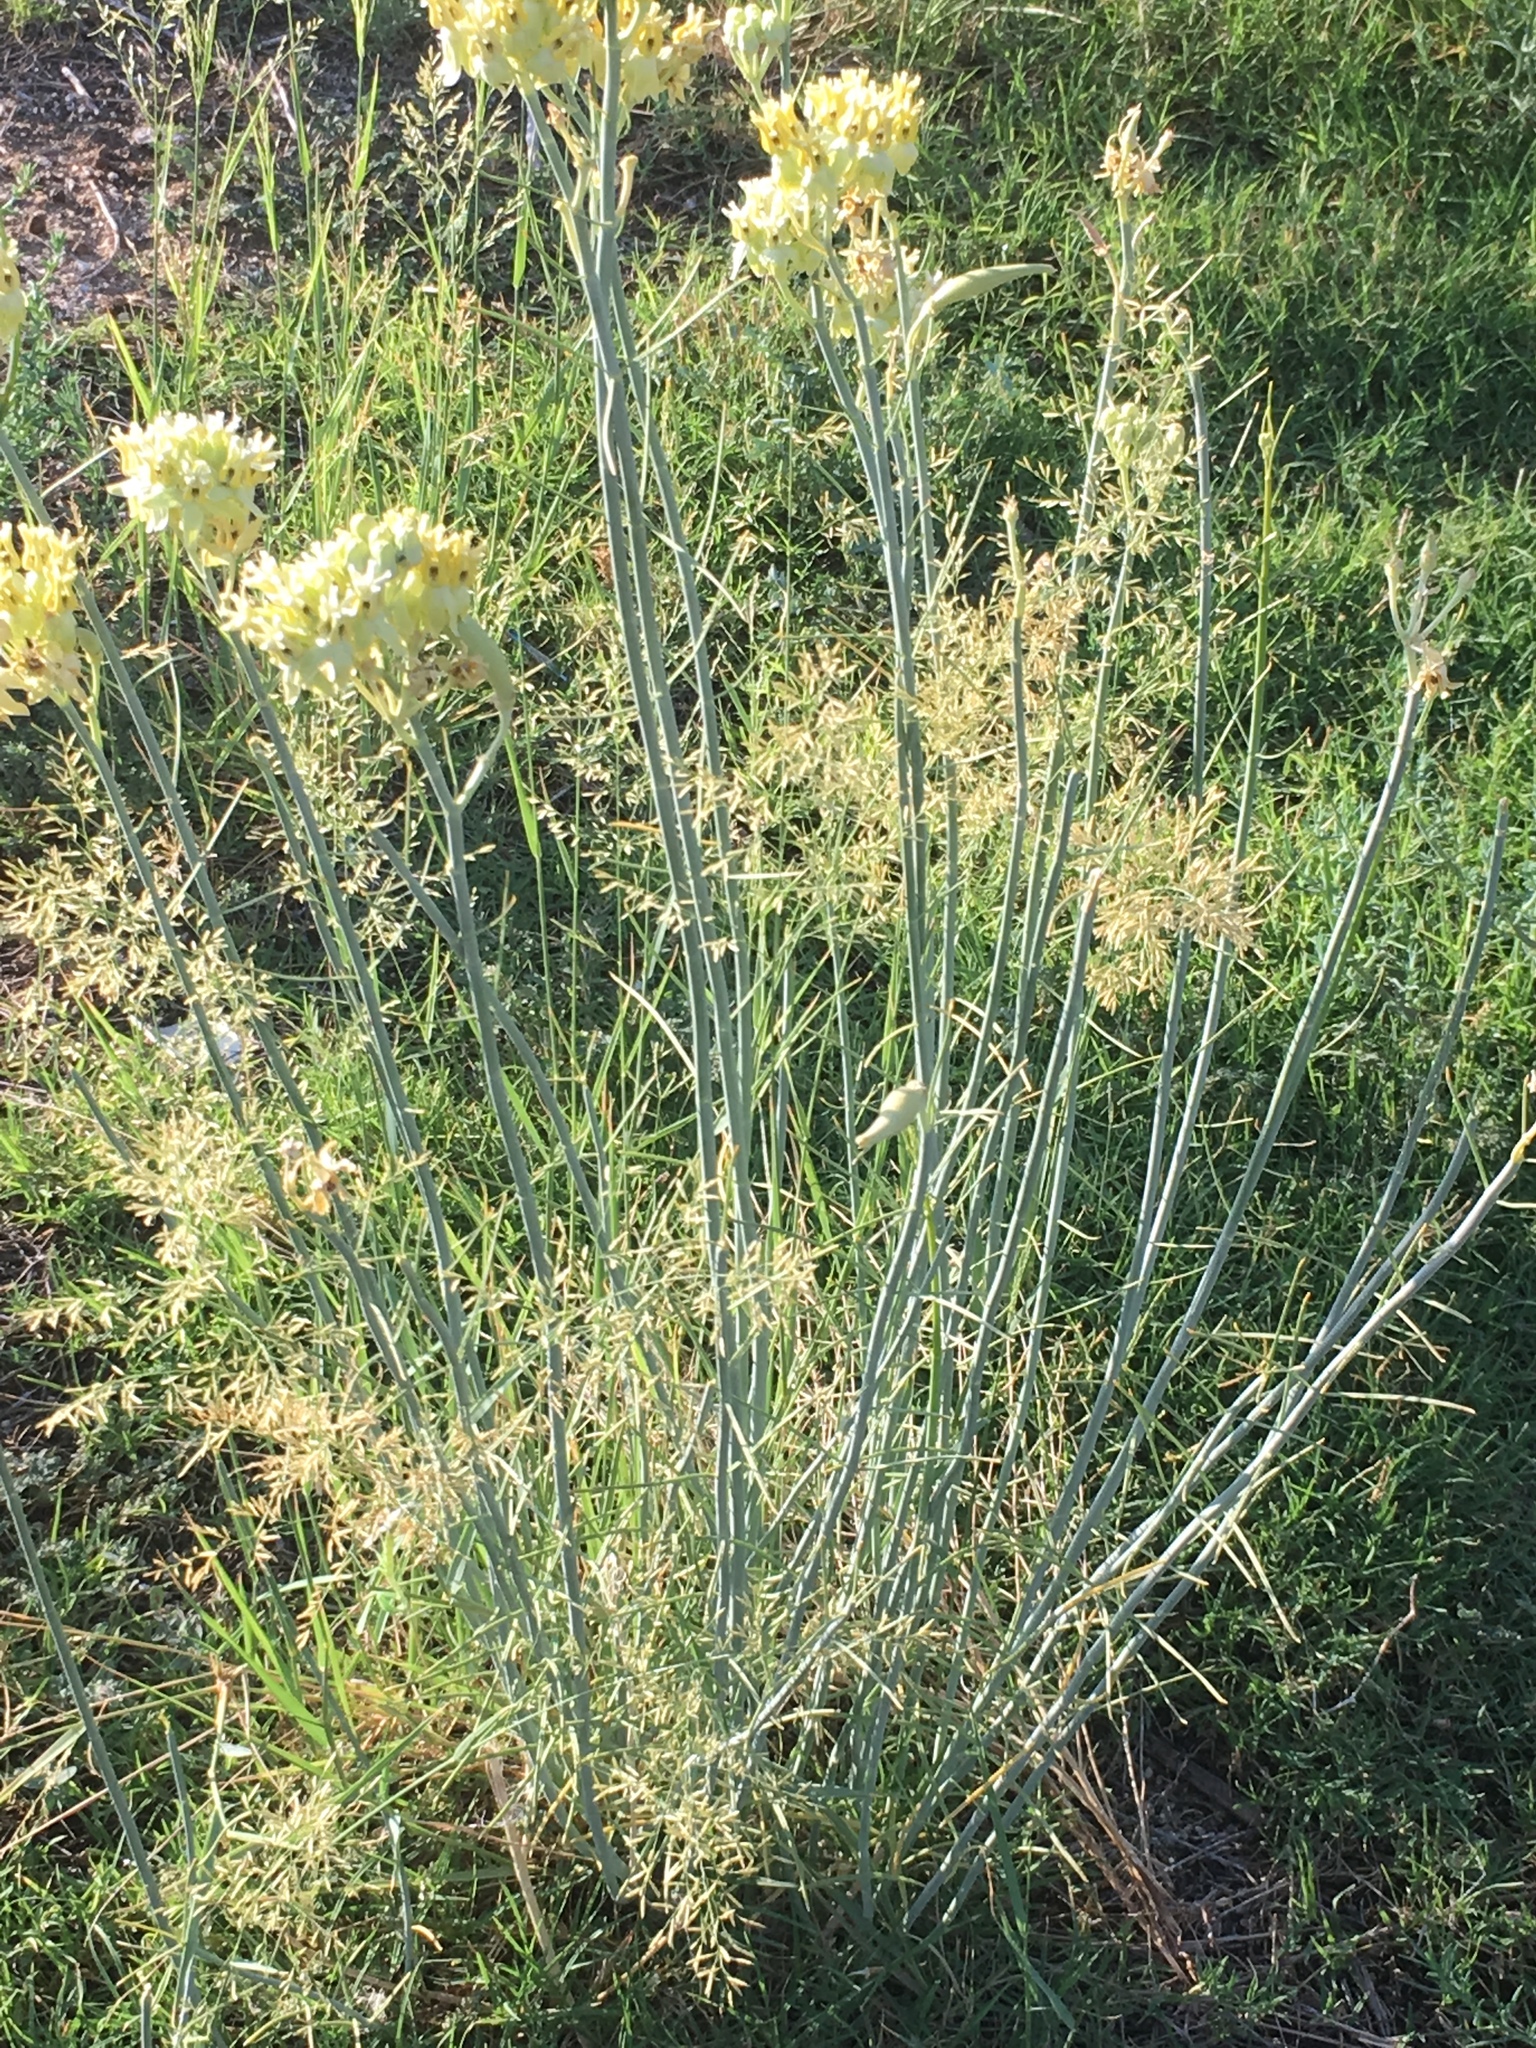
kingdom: Plantae
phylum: Tracheophyta
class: Magnoliopsida
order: Gentianales
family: Apocynaceae
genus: Asclepias
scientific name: Asclepias subulata
